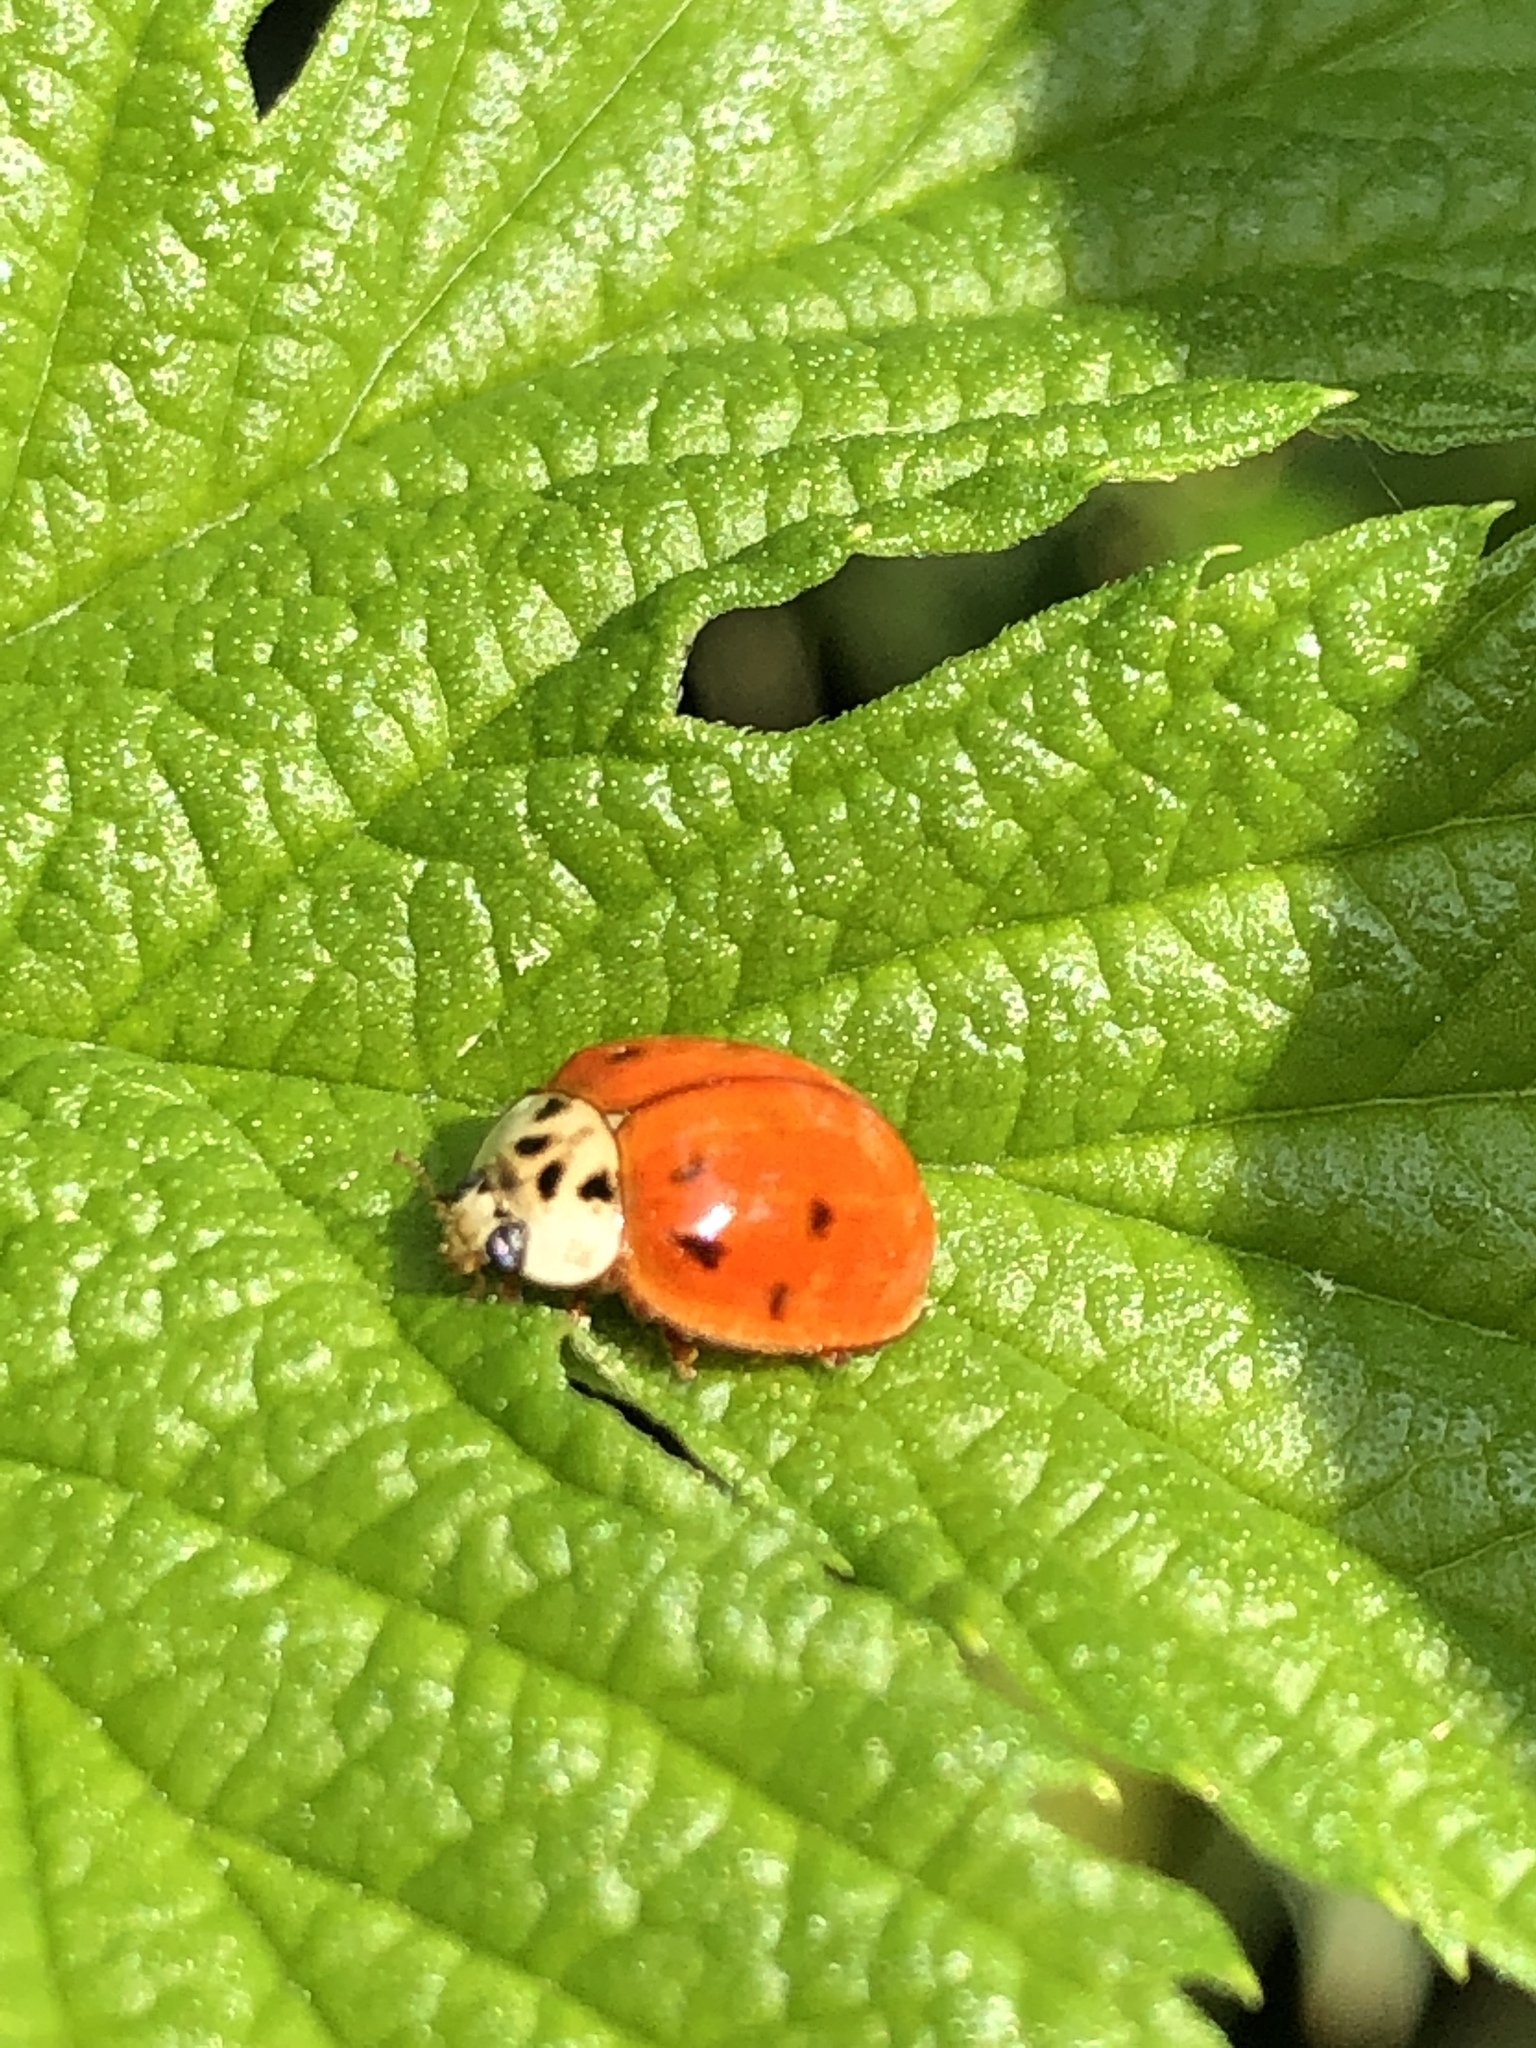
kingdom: Animalia
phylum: Arthropoda
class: Insecta
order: Coleoptera
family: Coccinellidae
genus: Harmonia
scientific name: Harmonia axyridis
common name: Harlequin ladybird
